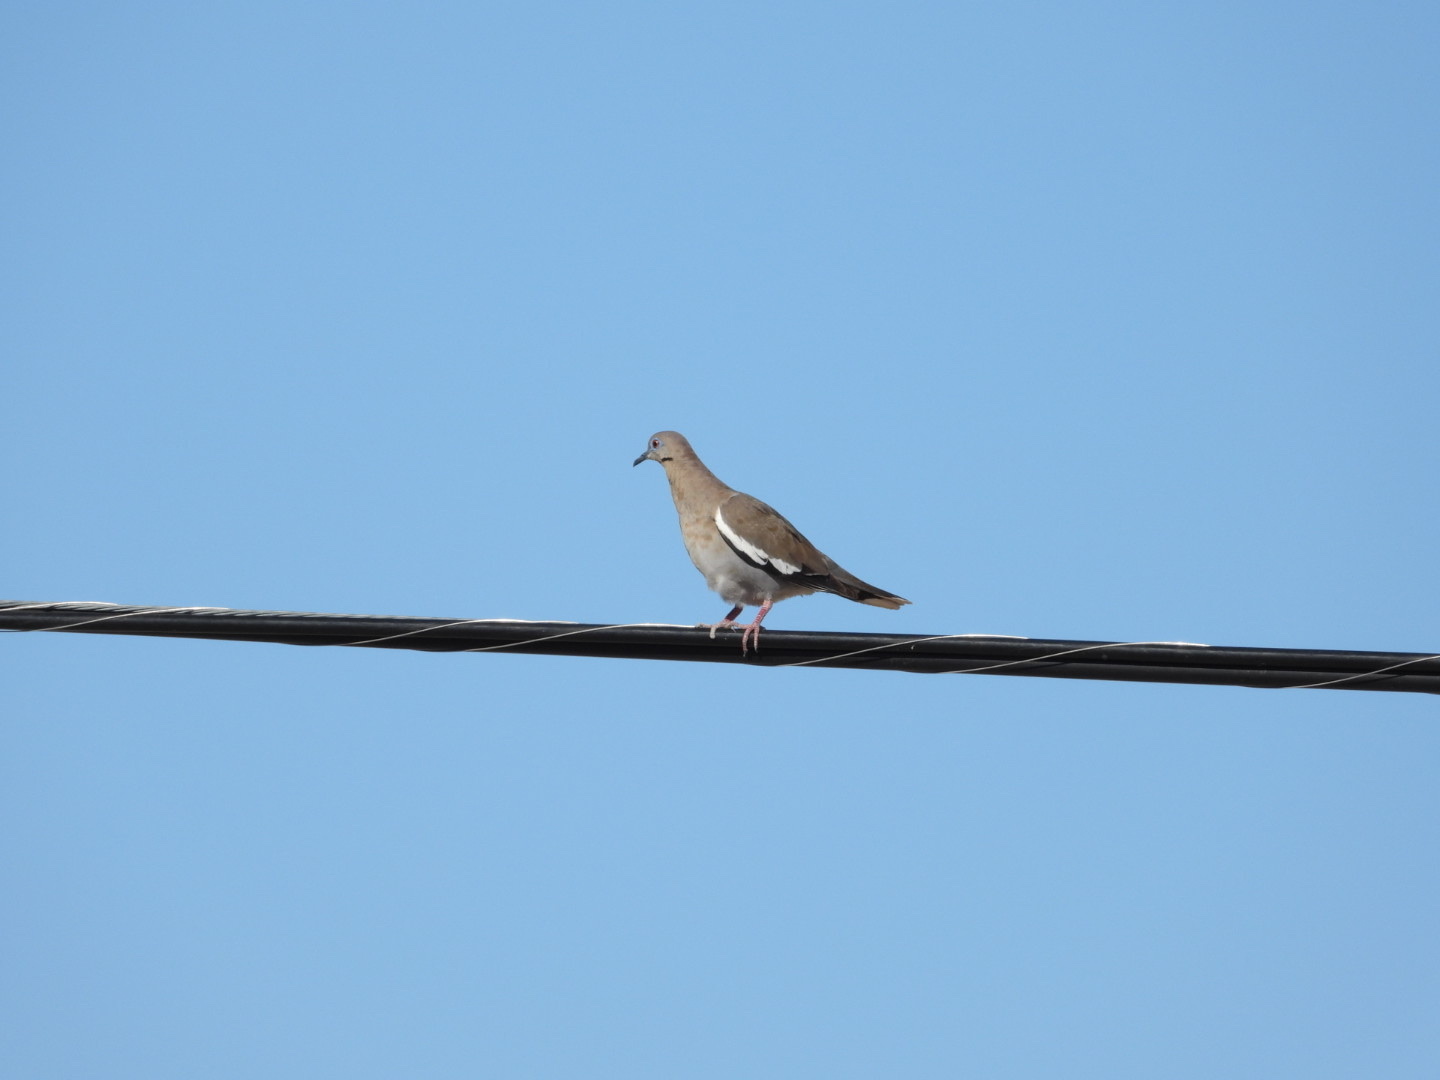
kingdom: Animalia
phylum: Chordata
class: Aves
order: Columbiformes
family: Columbidae
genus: Zenaida
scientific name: Zenaida asiatica
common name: White-winged dove
